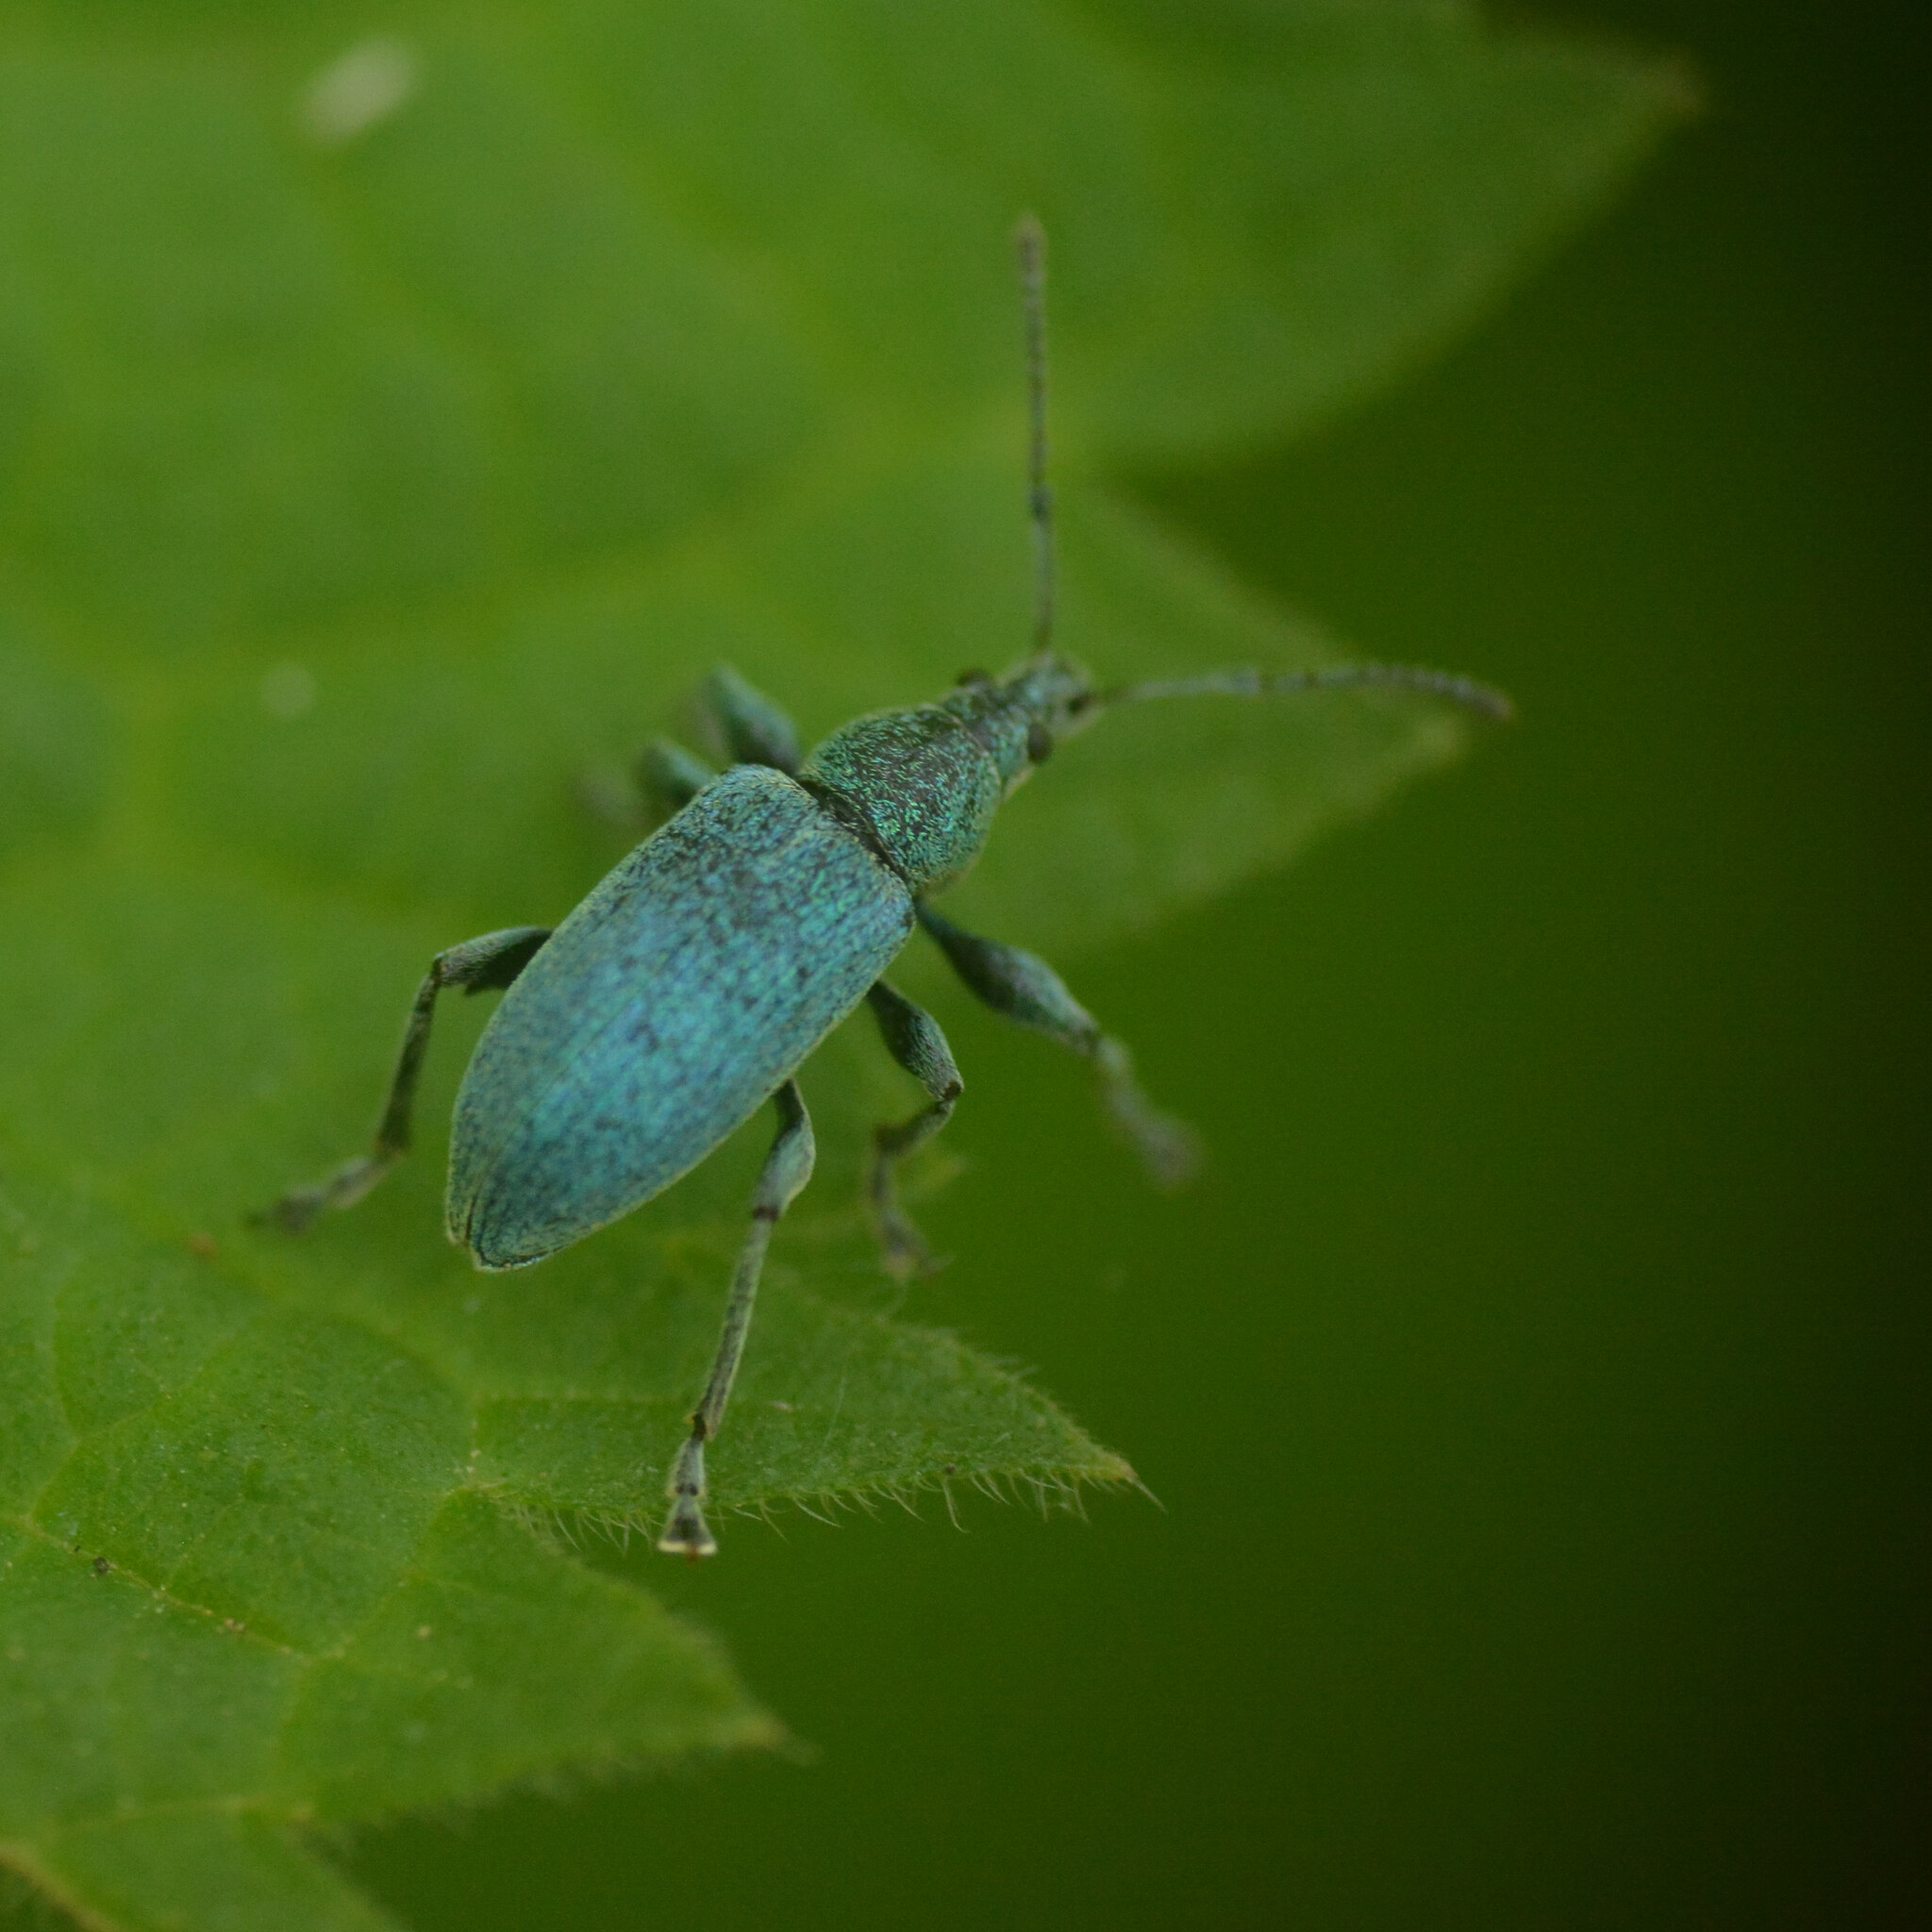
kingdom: Animalia
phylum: Arthropoda
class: Insecta
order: Coleoptera
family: Curculionidae
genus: Phyllobius
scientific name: Phyllobius pomaceus
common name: Green nettle weevil
